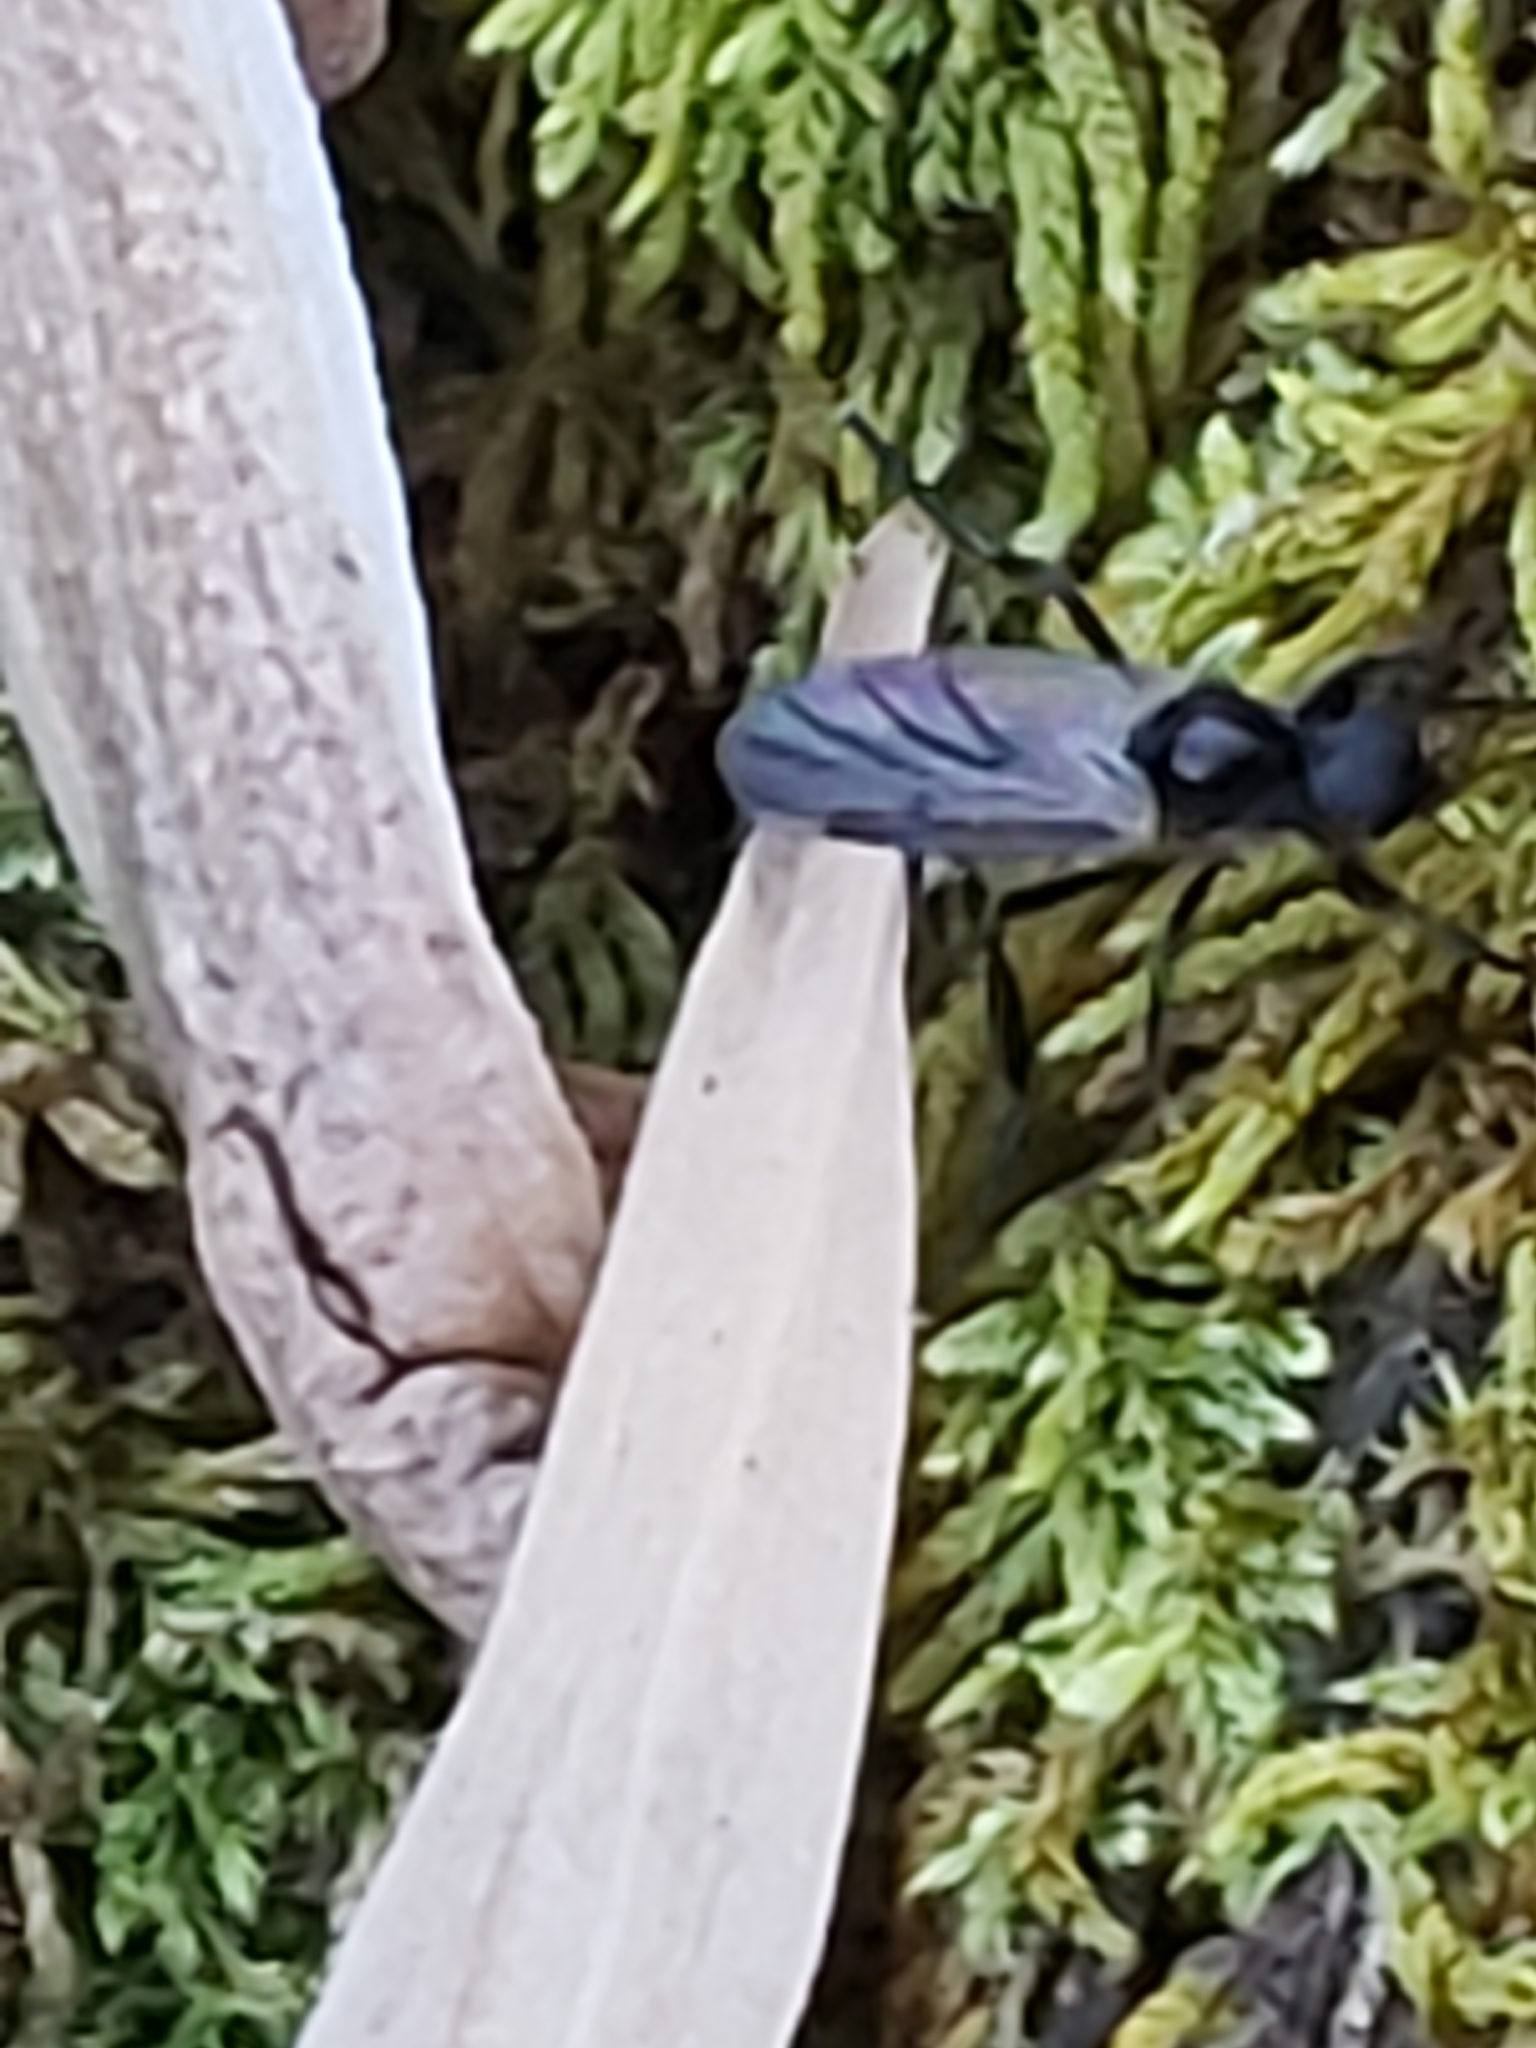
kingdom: Animalia
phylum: Arthropoda
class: Insecta
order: Diptera
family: Bibionidae
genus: Bibio
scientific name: Bibio longipes
